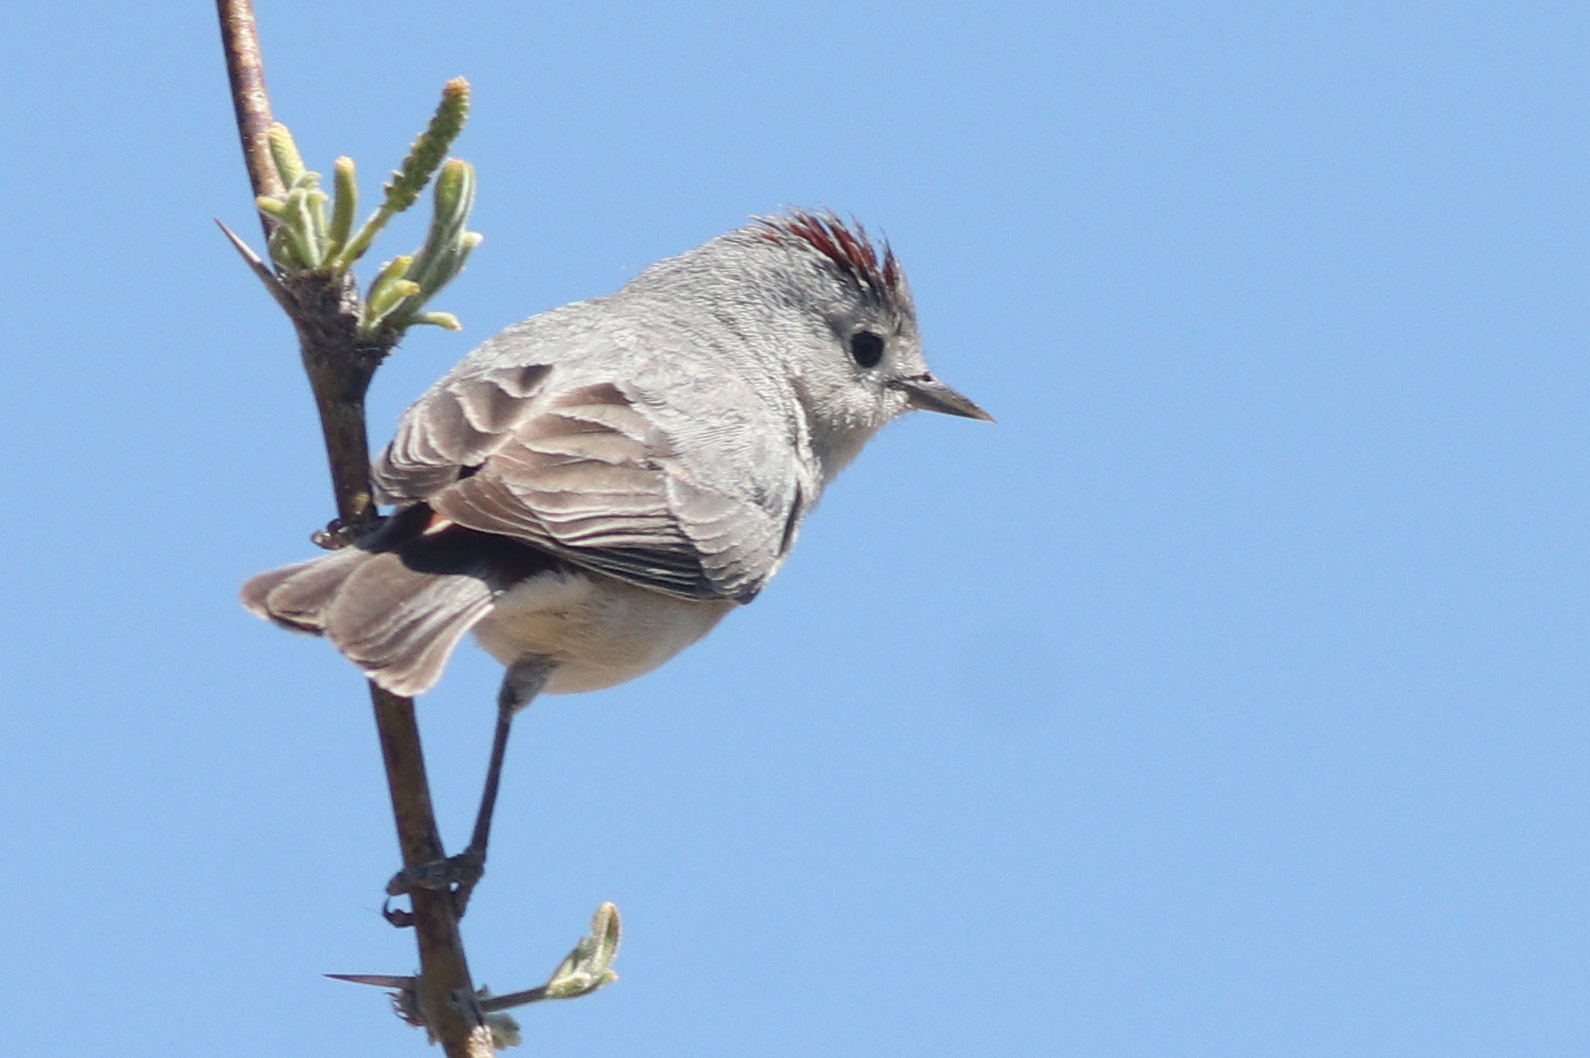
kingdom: Animalia
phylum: Chordata
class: Aves
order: Passeriformes
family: Parulidae
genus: Leiothlypis
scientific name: Leiothlypis luciae
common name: Lucy's warbler
